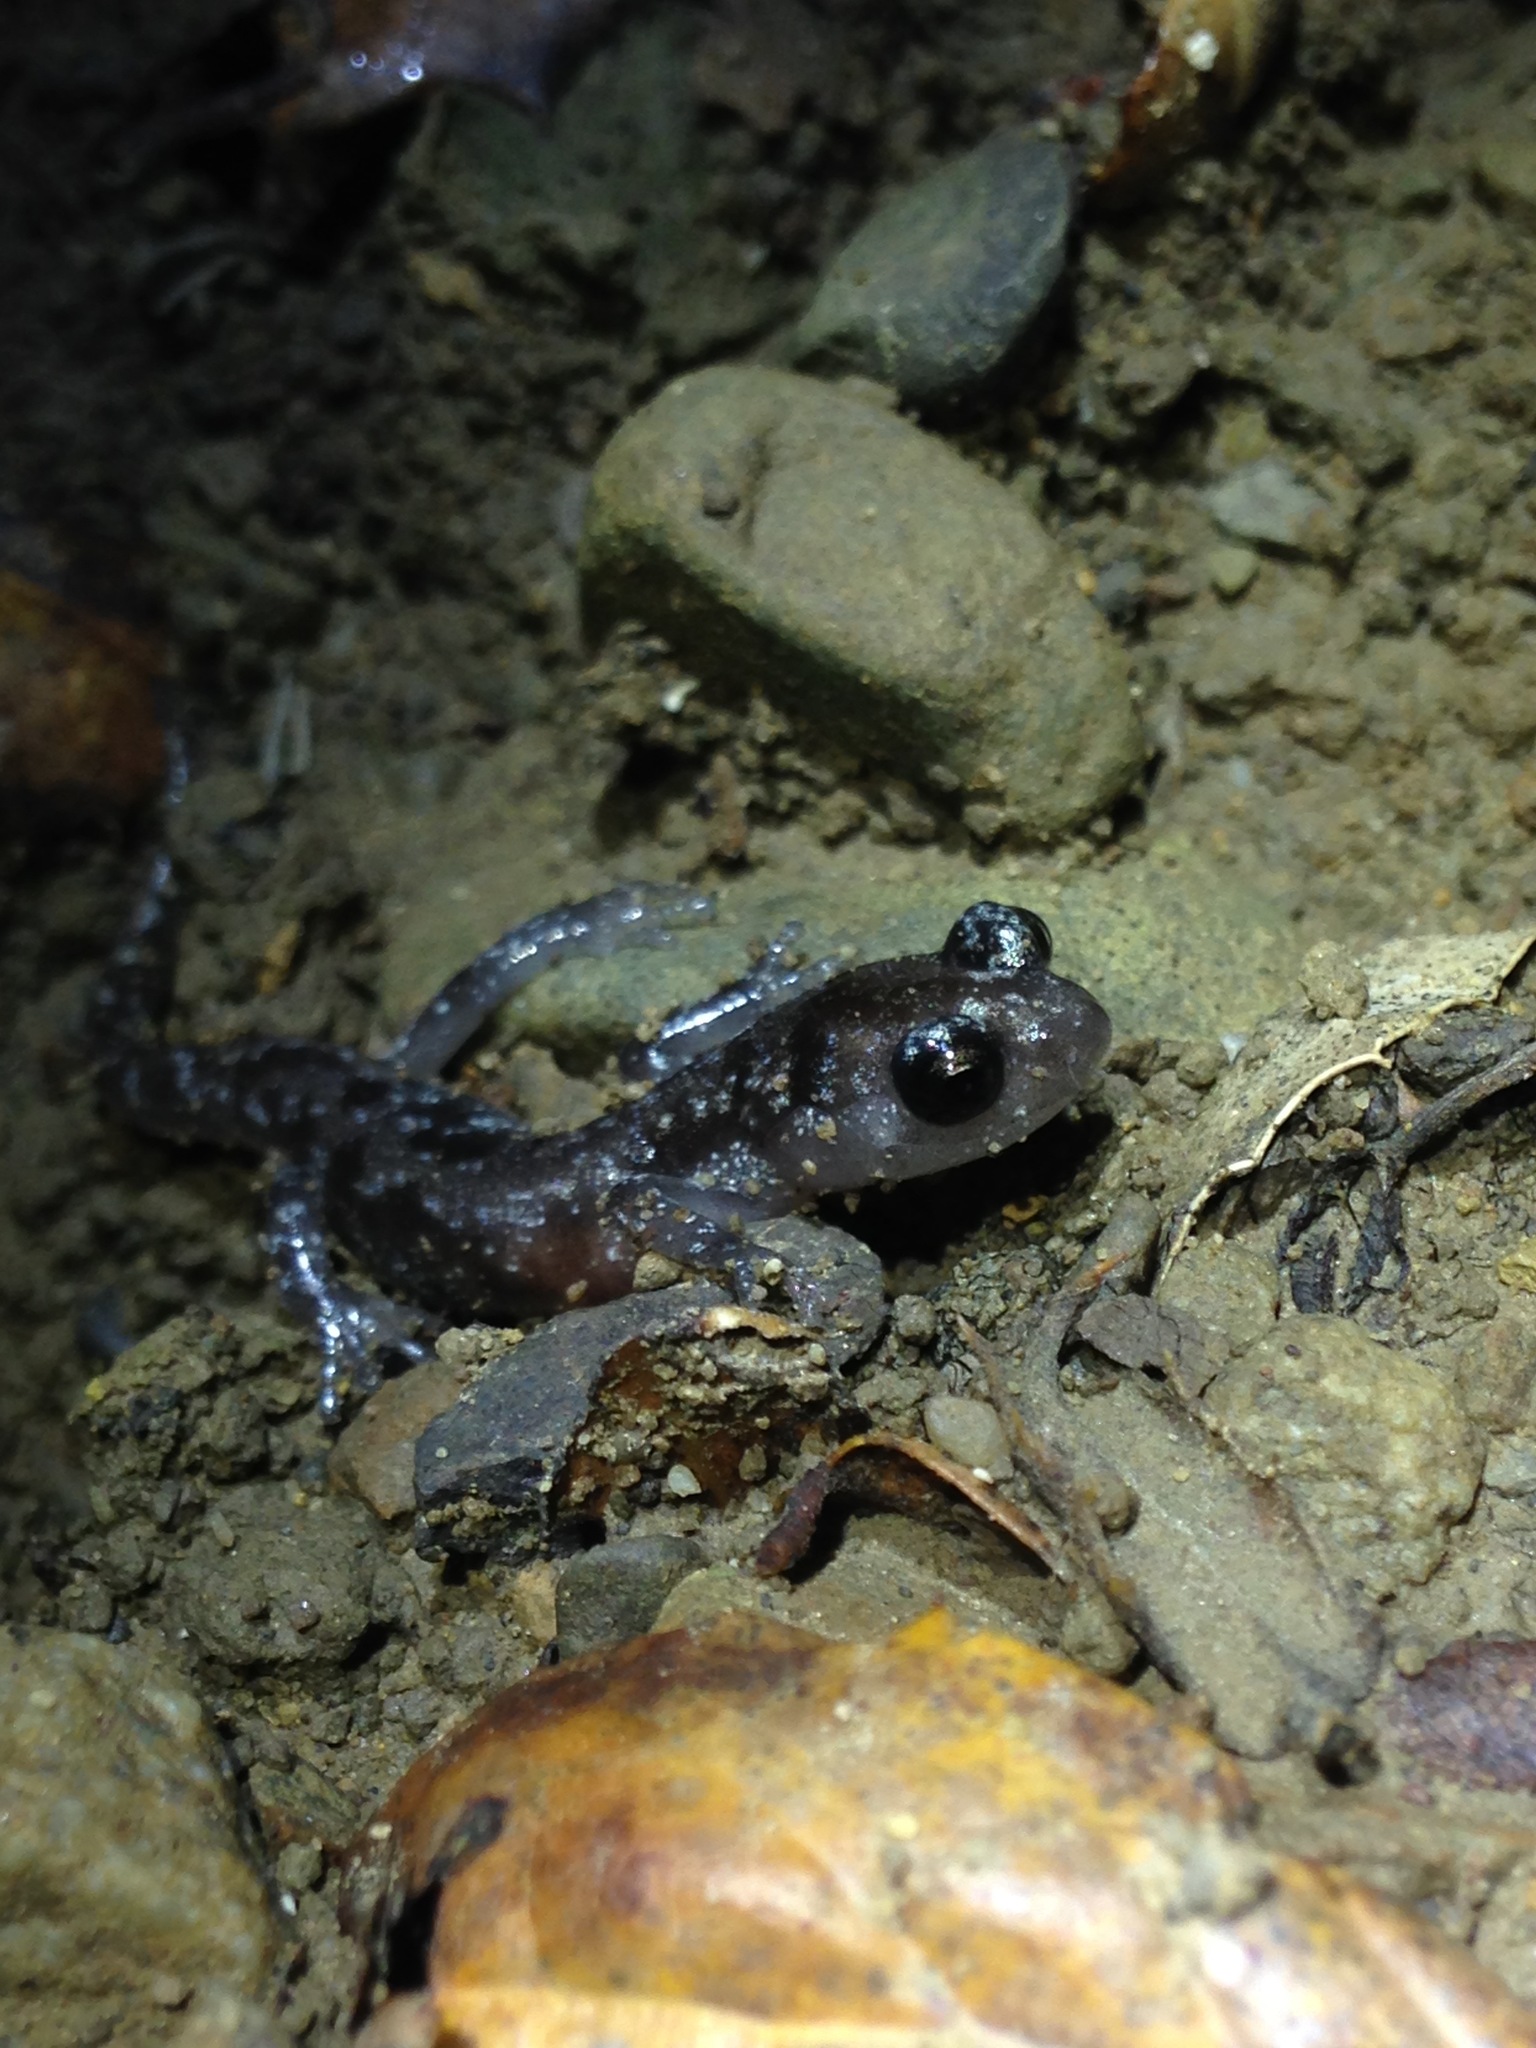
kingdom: Animalia
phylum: Chordata
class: Amphibia
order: Caudata
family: Plethodontidae
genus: Aneides
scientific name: Aneides lugubris
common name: Arboreal salamander
